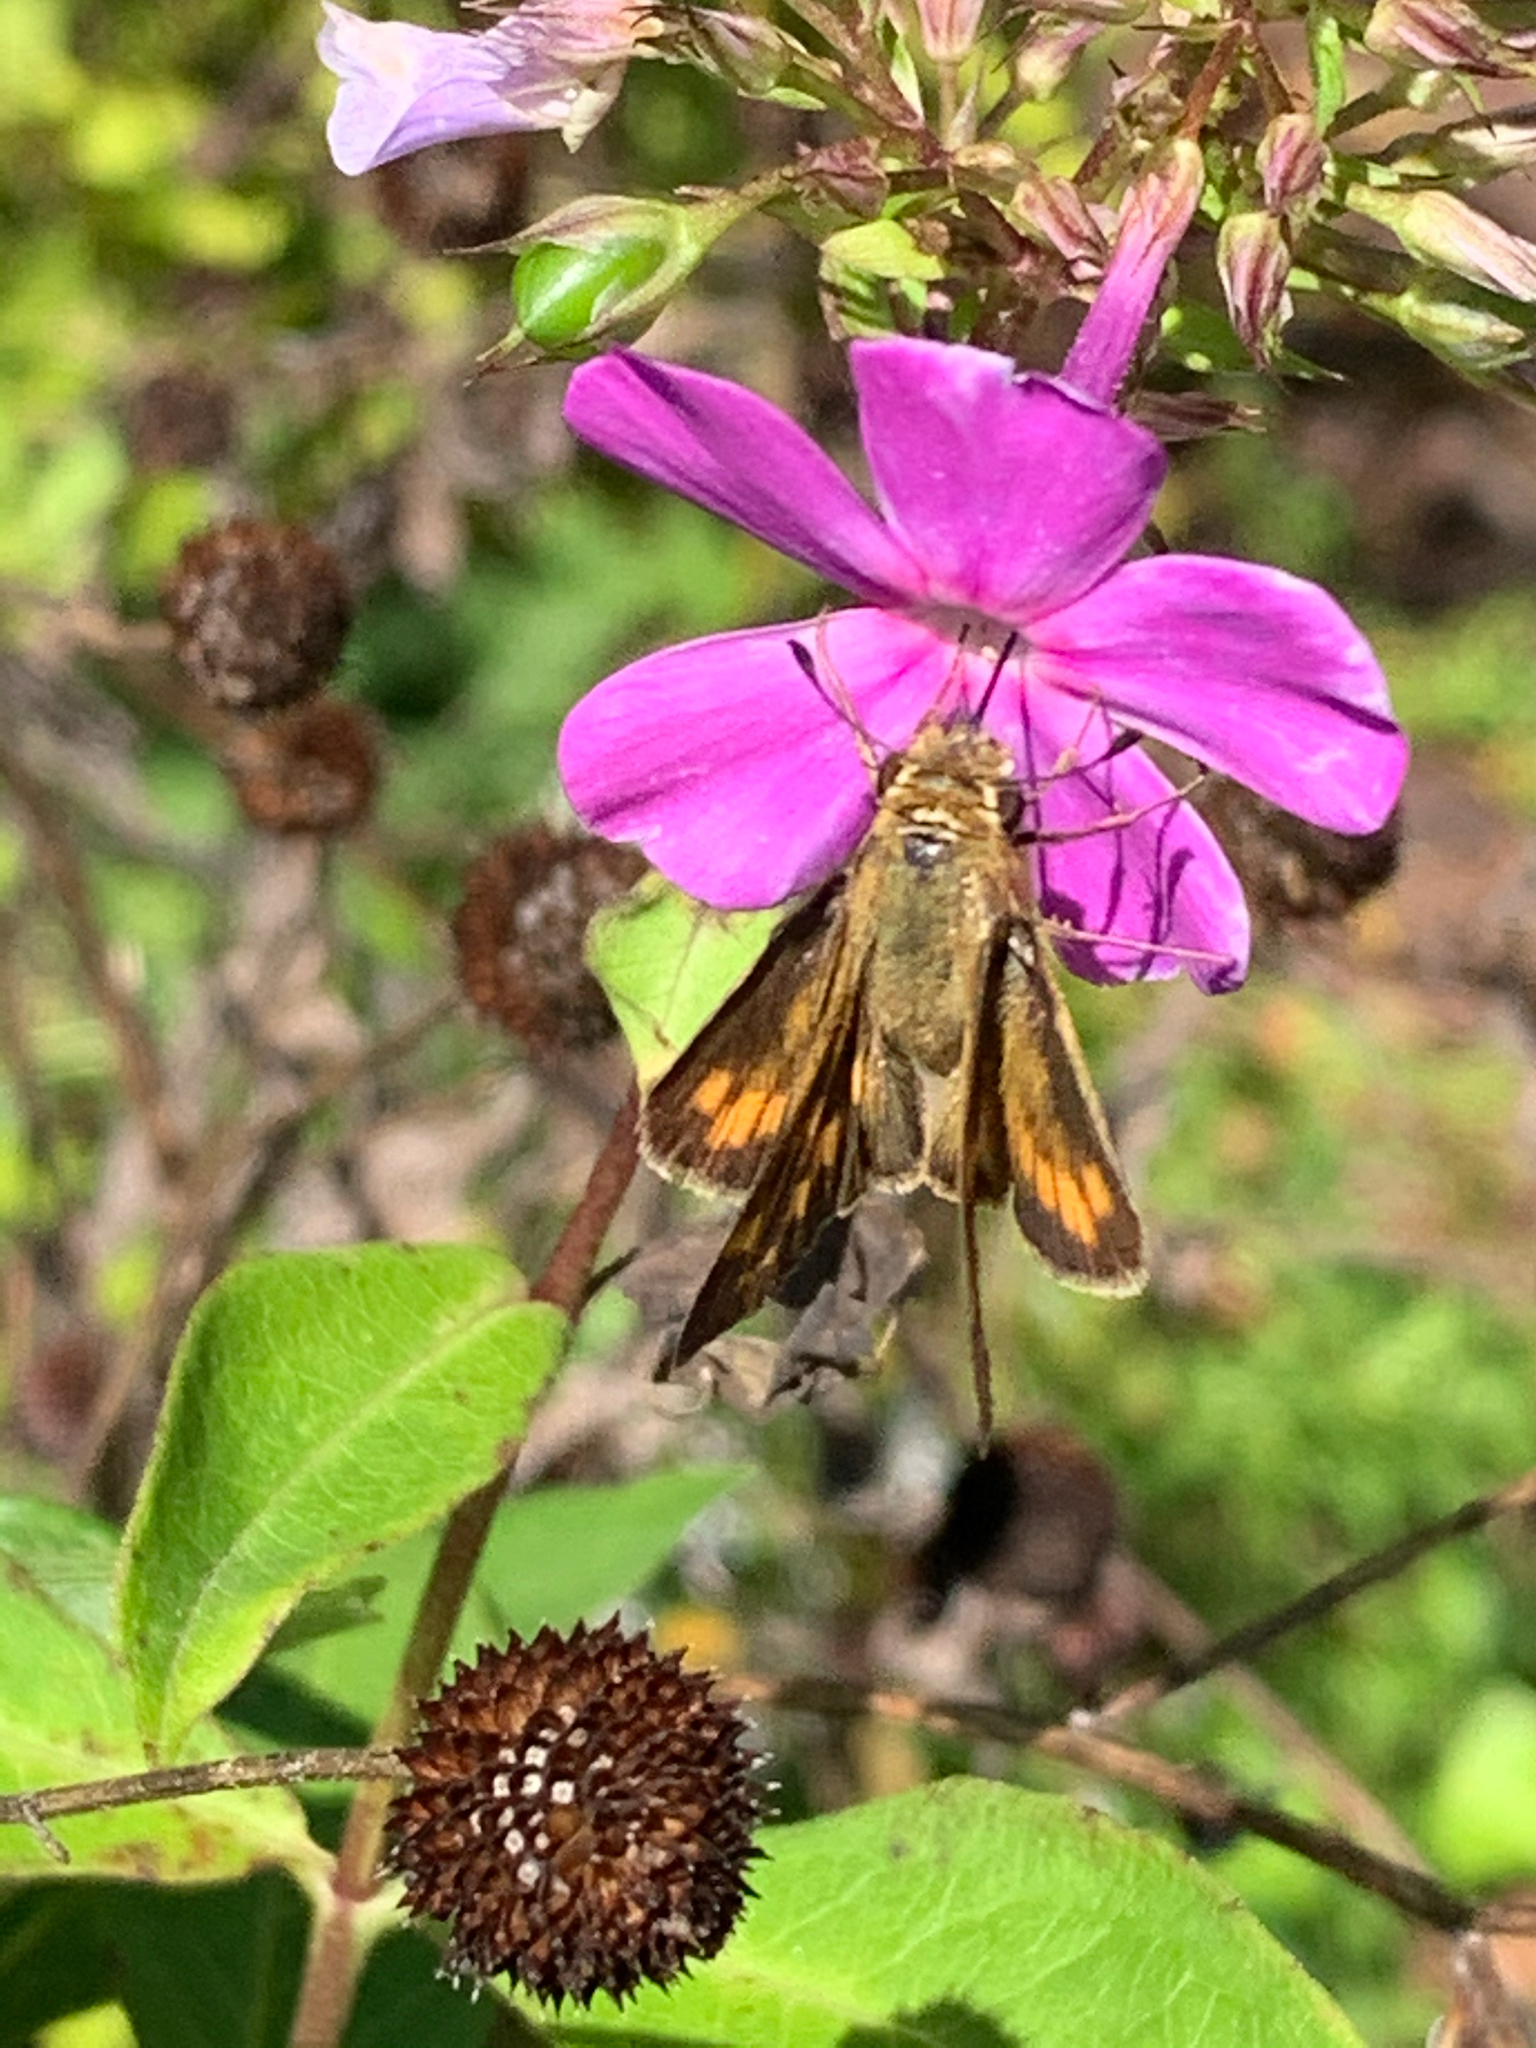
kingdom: Animalia
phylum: Arthropoda
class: Insecta
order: Lepidoptera
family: Hesperiidae
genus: Hylephila
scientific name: Hylephila phyleus
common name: Fiery skipper
